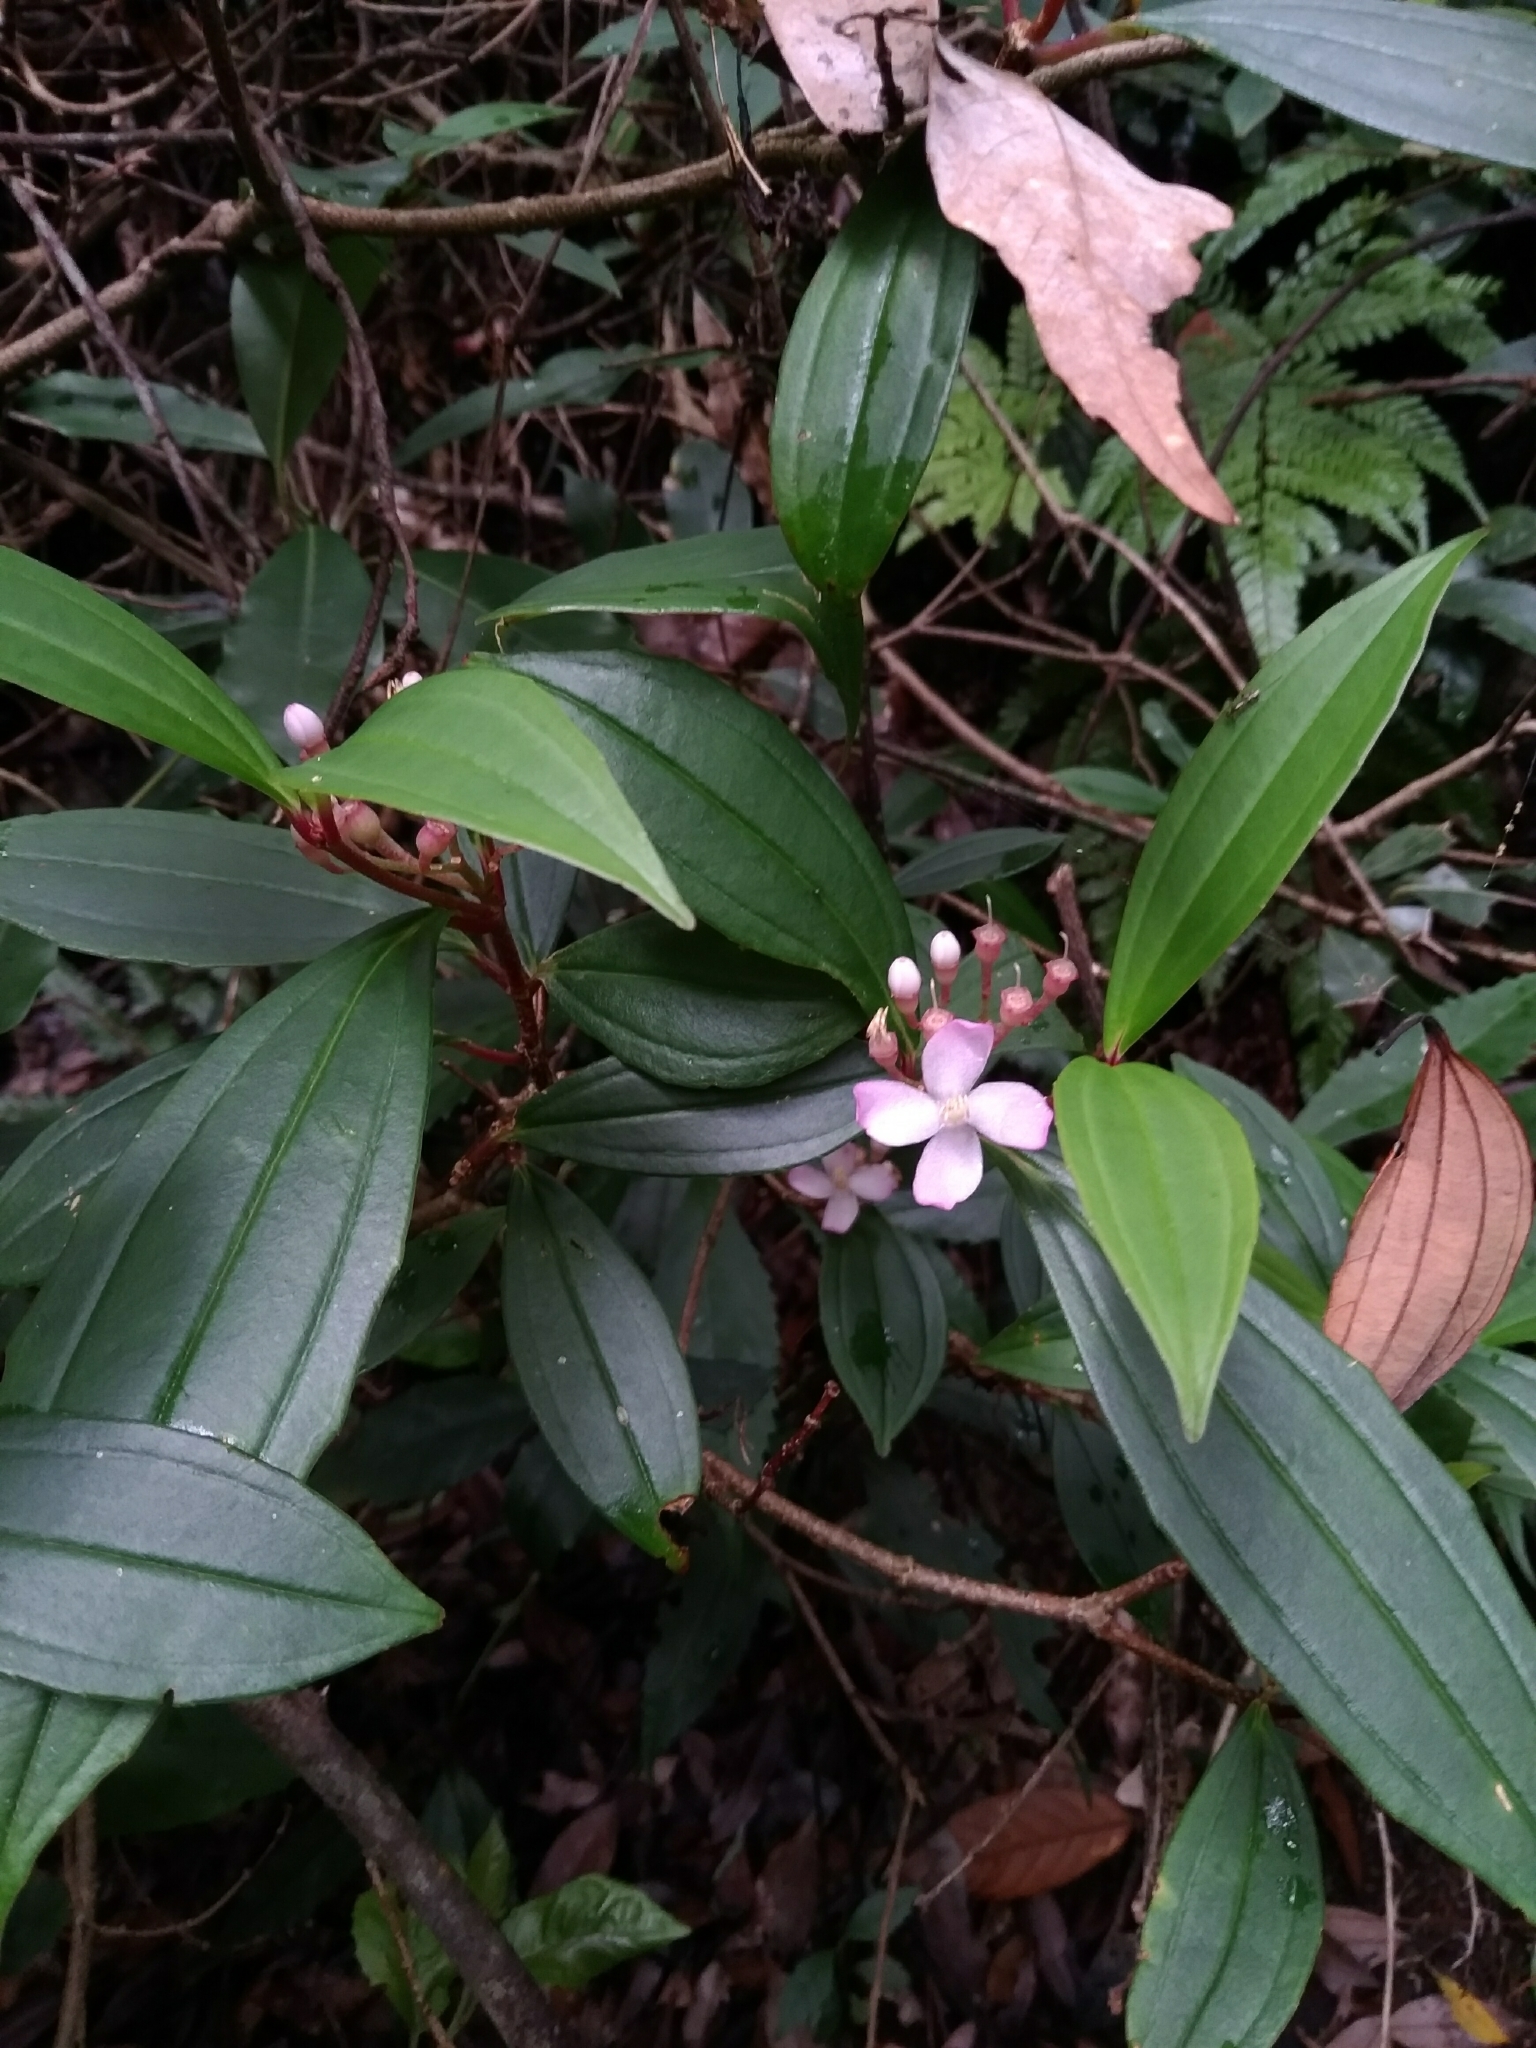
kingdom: Plantae
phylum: Tracheophyta
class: Magnoliopsida
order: Myrtales
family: Melastomataceae
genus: Medinilla
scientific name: Medinilla fengii
